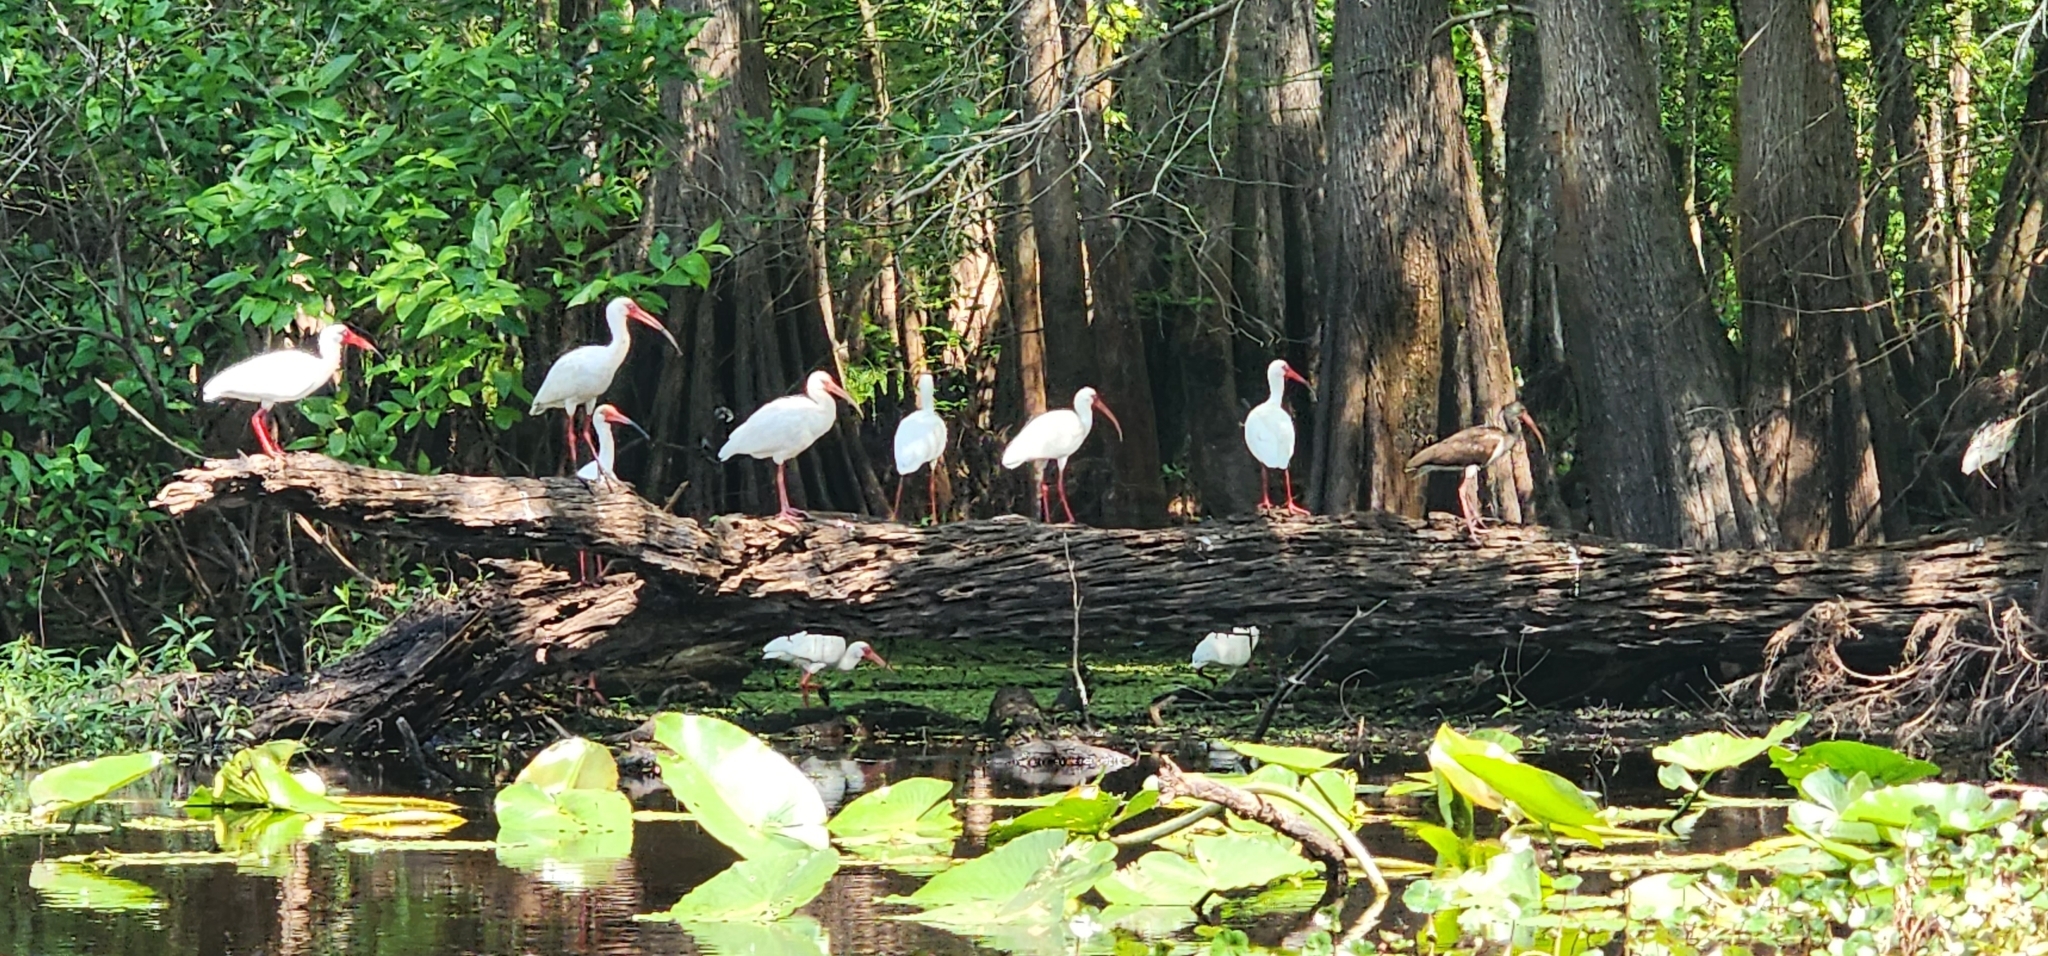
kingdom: Animalia
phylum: Chordata
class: Aves
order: Pelecaniformes
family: Threskiornithidae
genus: Eudocimus
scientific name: Eudocimus albus
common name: White ibis
